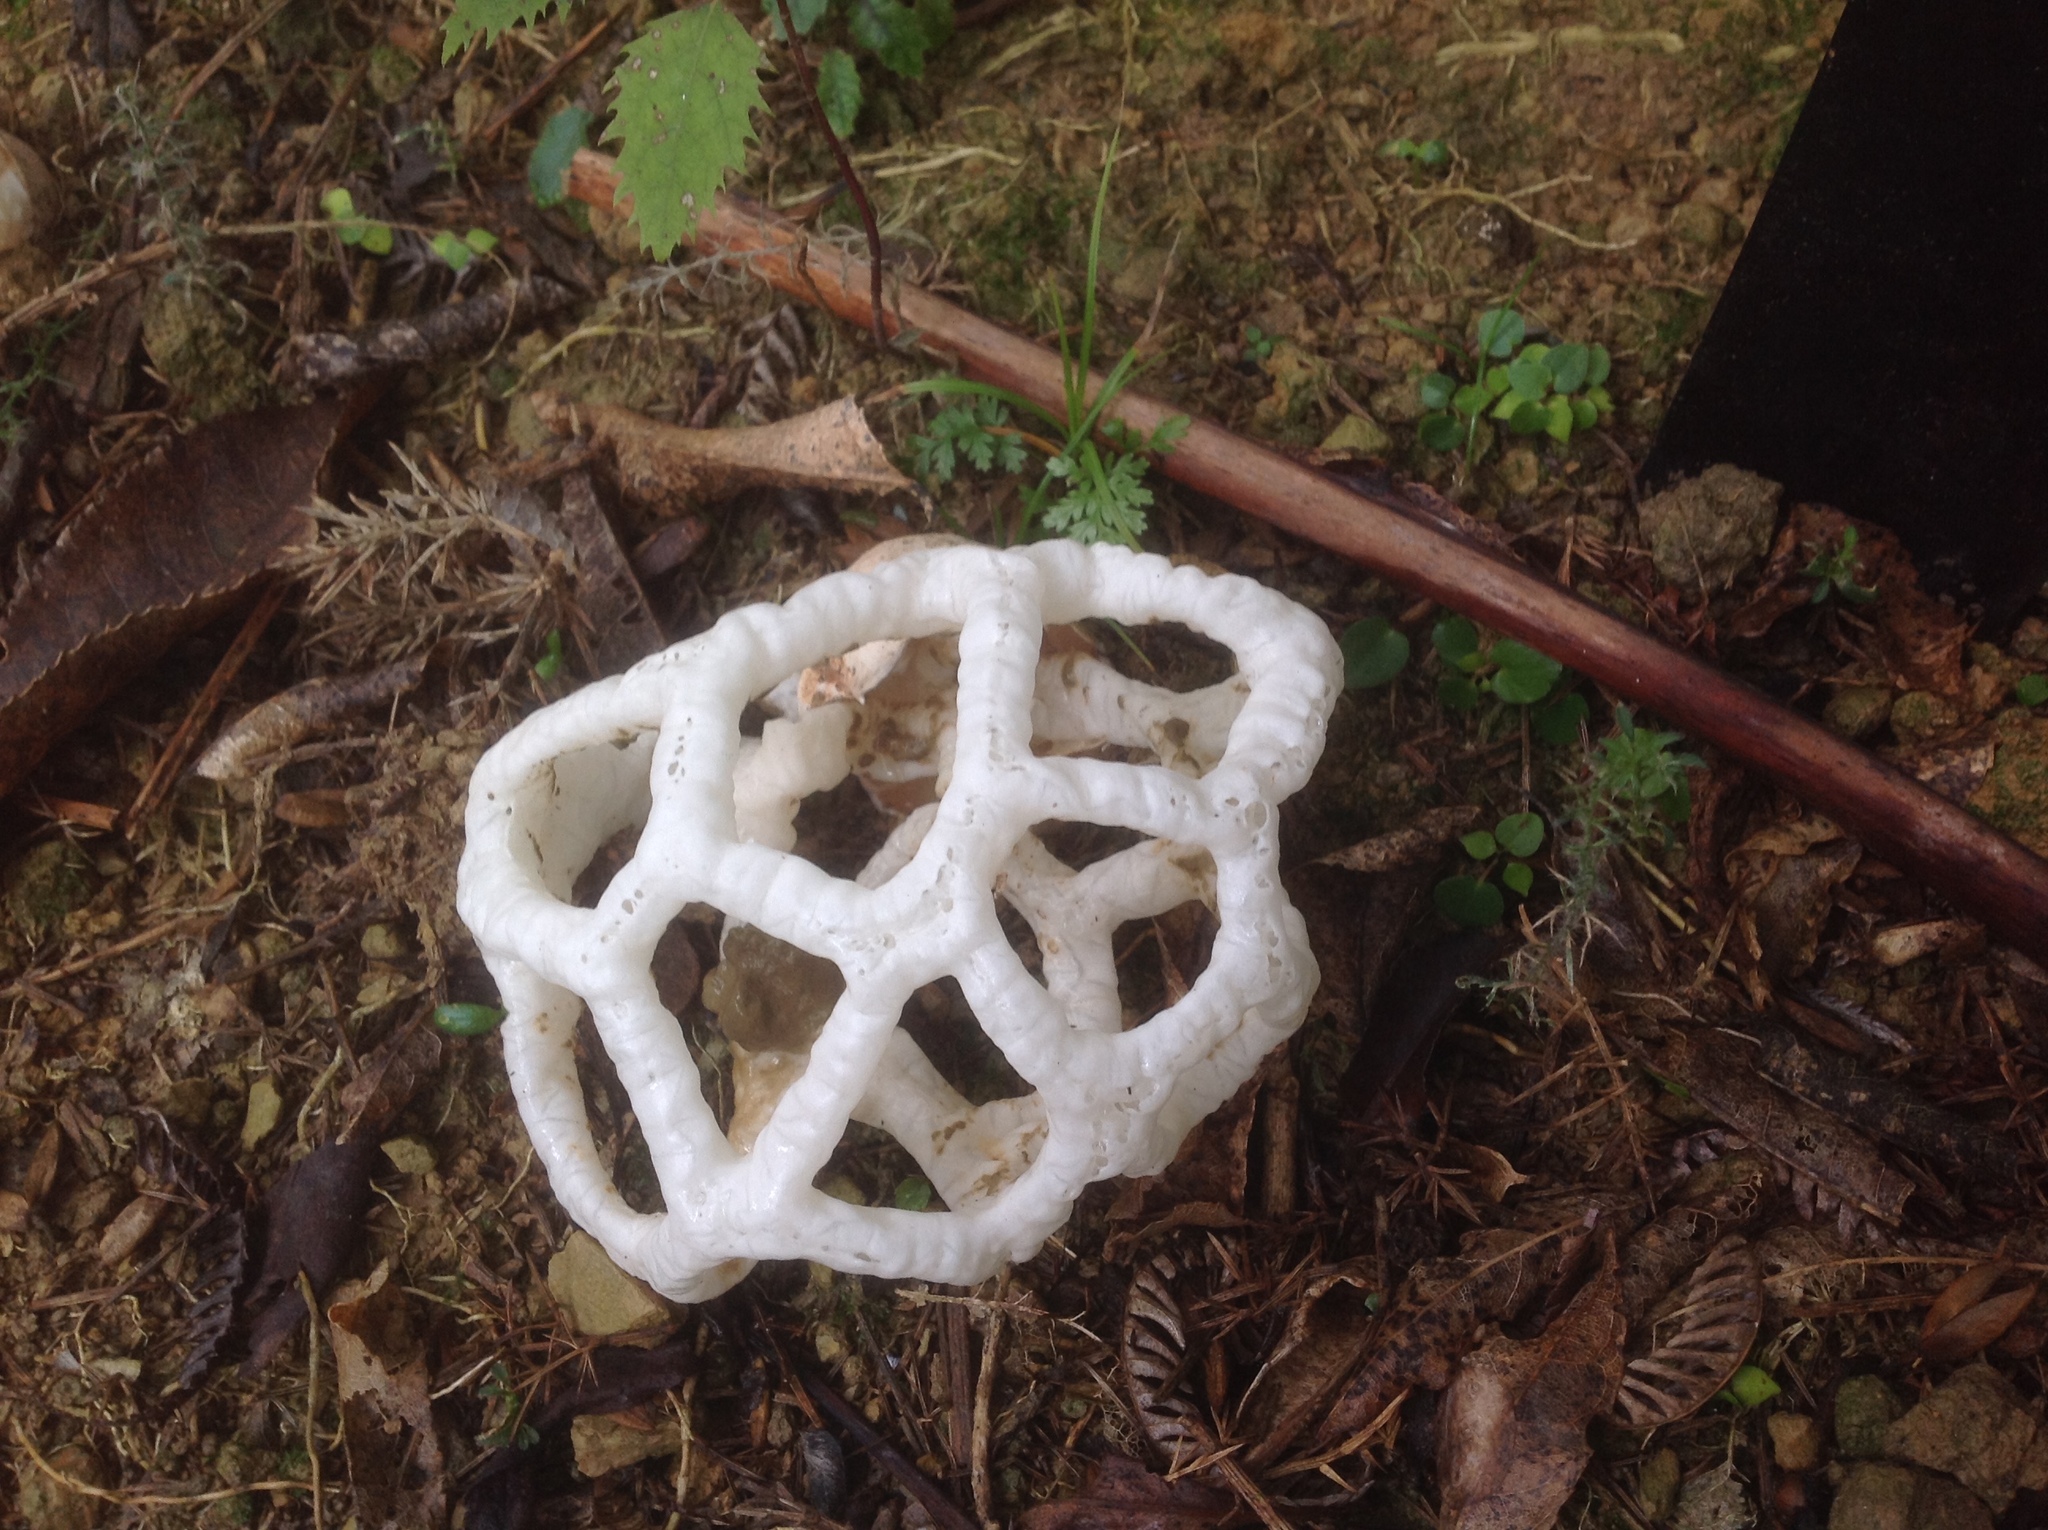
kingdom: Fungi
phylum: Basidiomycota
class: Agaricomycetes
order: Phallales
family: Phallaceae
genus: Ileodictyon
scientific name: Ileodictyon cibarium
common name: Basket fungus
